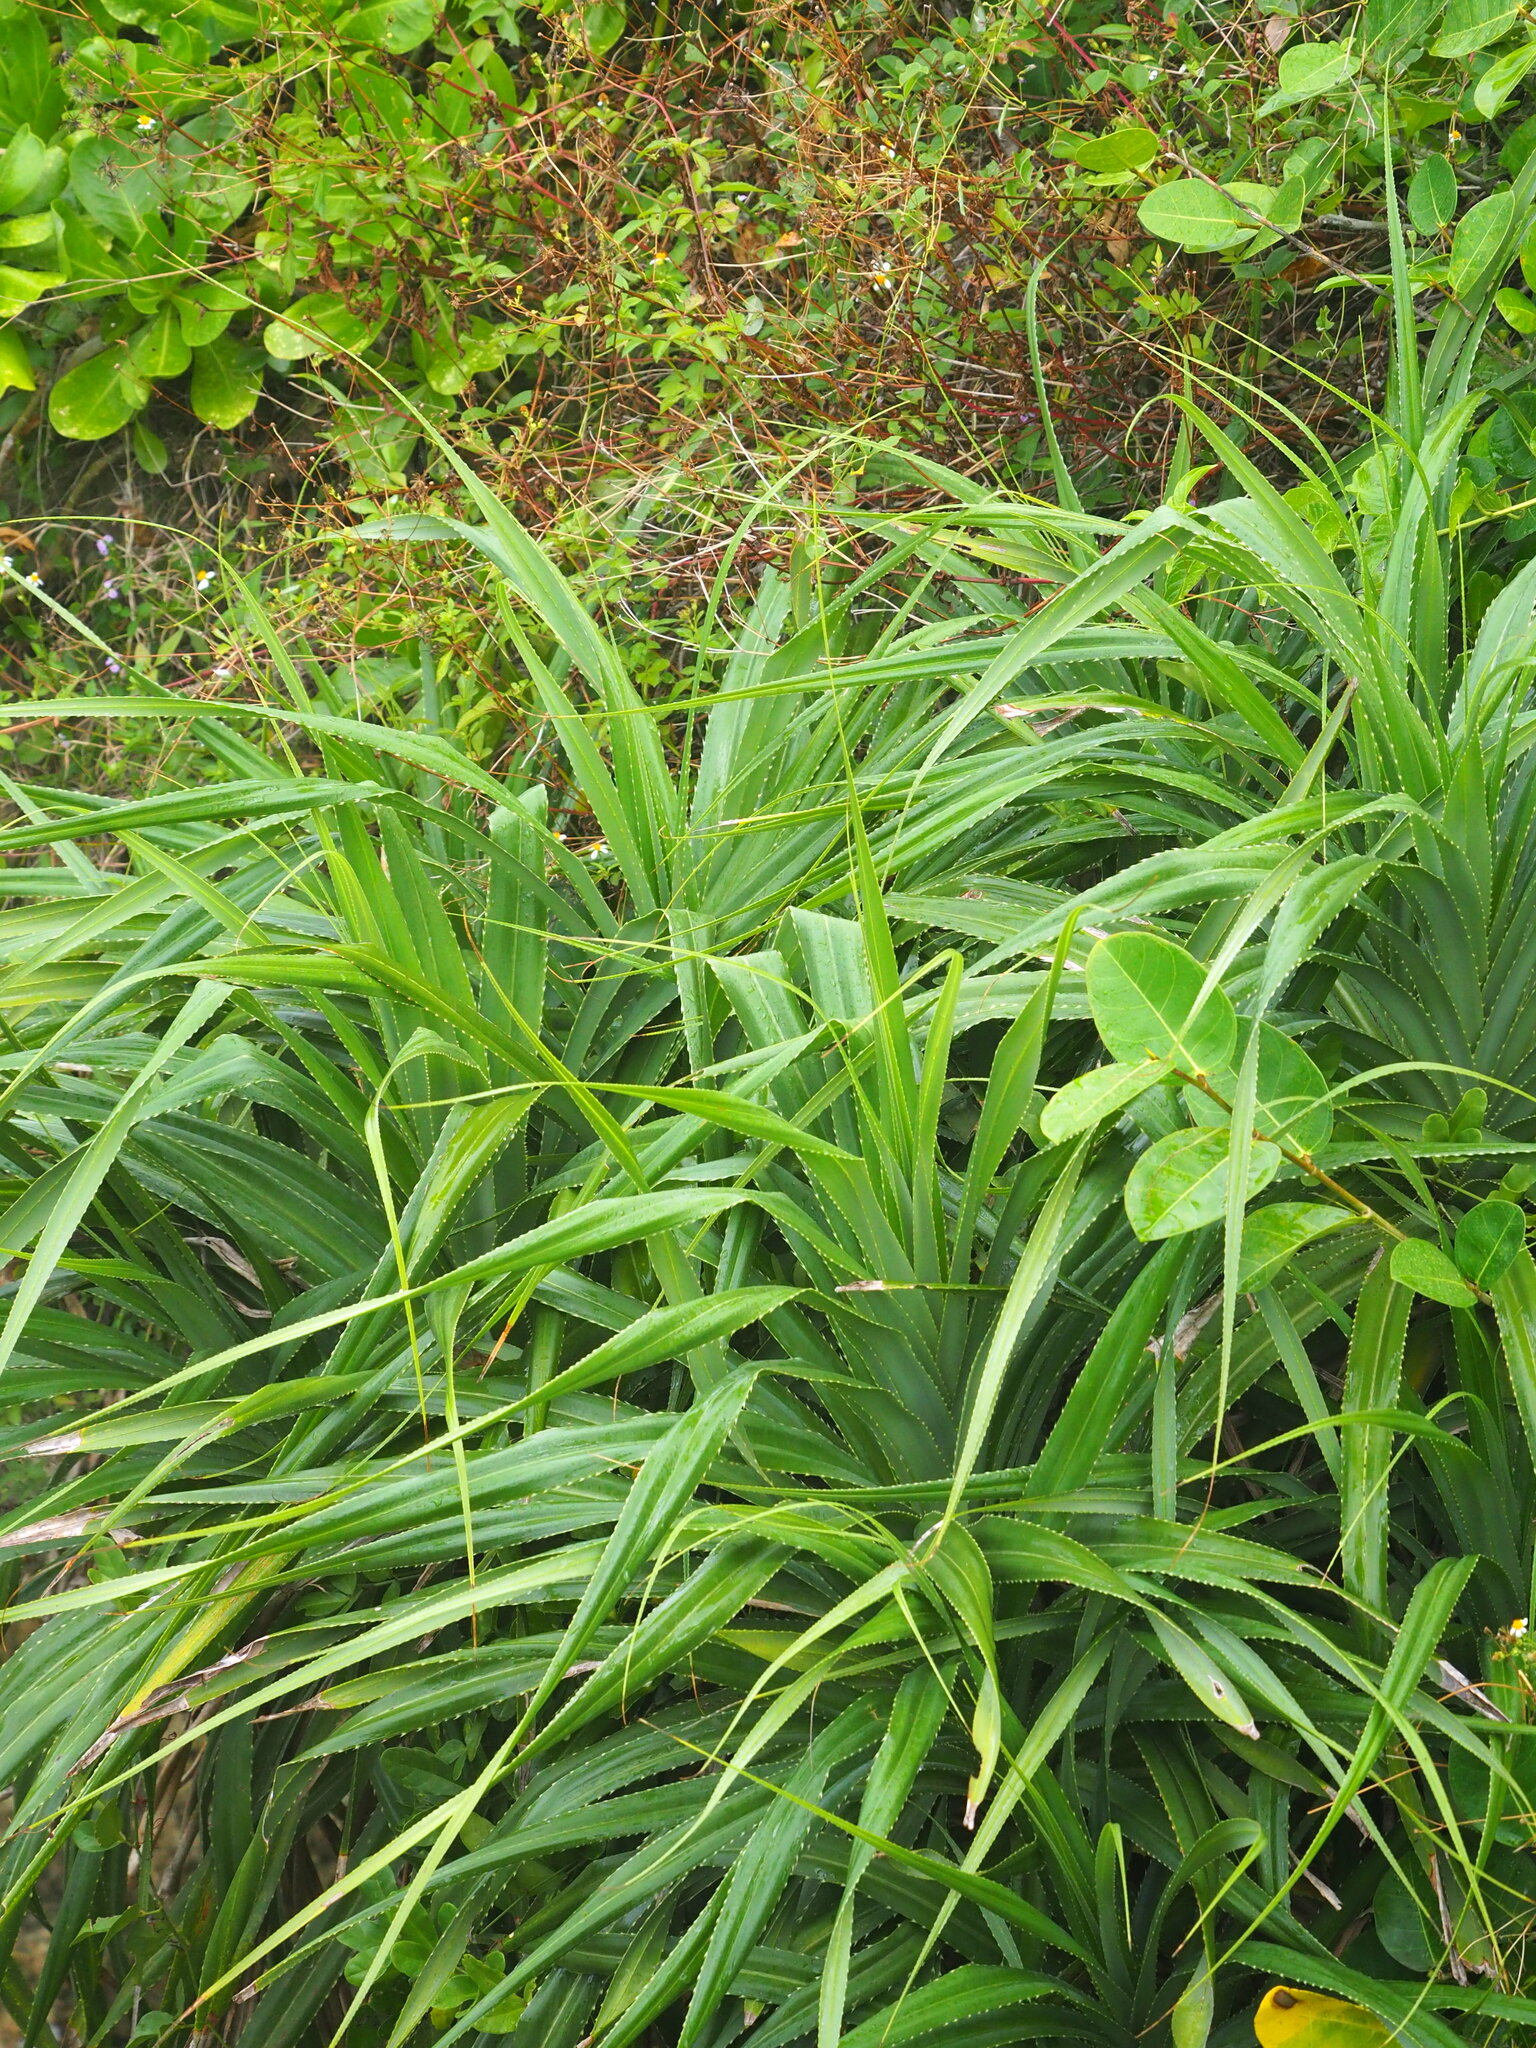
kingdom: Plantae
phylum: Tracheophyta
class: Liliopsida
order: Pandanales
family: Pandanaceae
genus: Pandanus
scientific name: Pandanus odorifer
